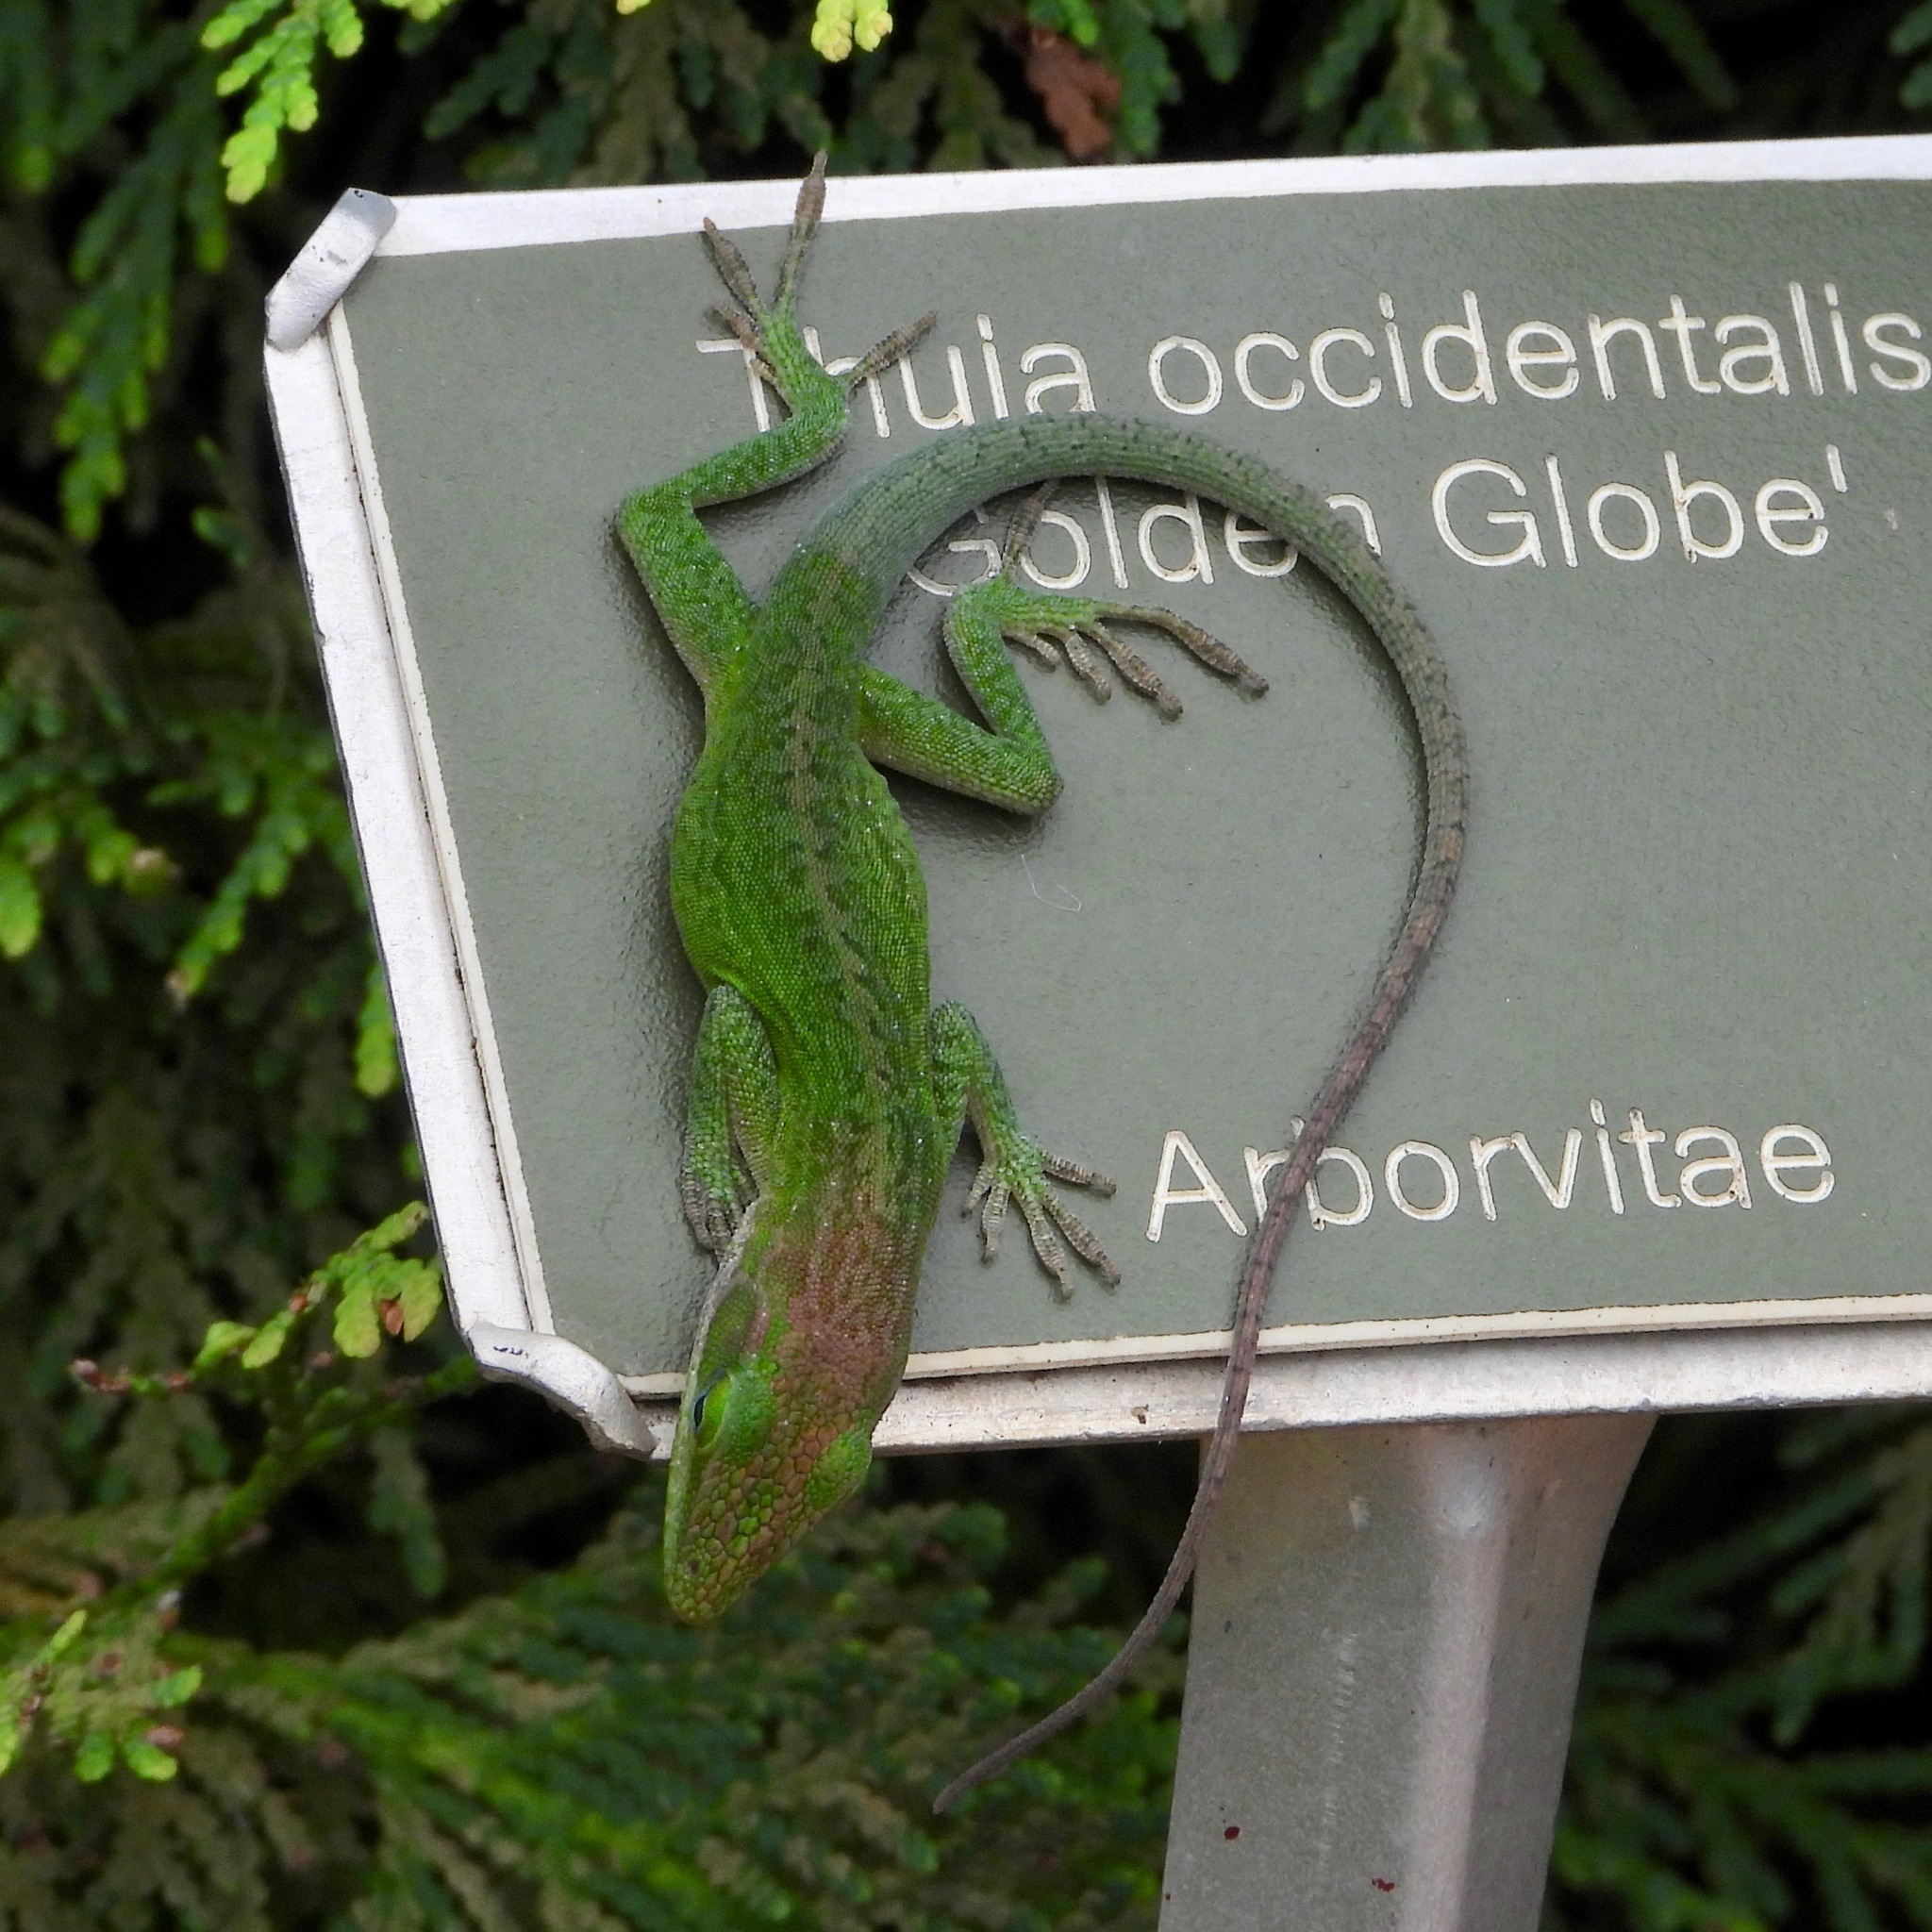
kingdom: Animalia
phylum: Chordata
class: Squamata
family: Dactyloidae
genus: Anolis
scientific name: Anolis carolinensis
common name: Green anole
